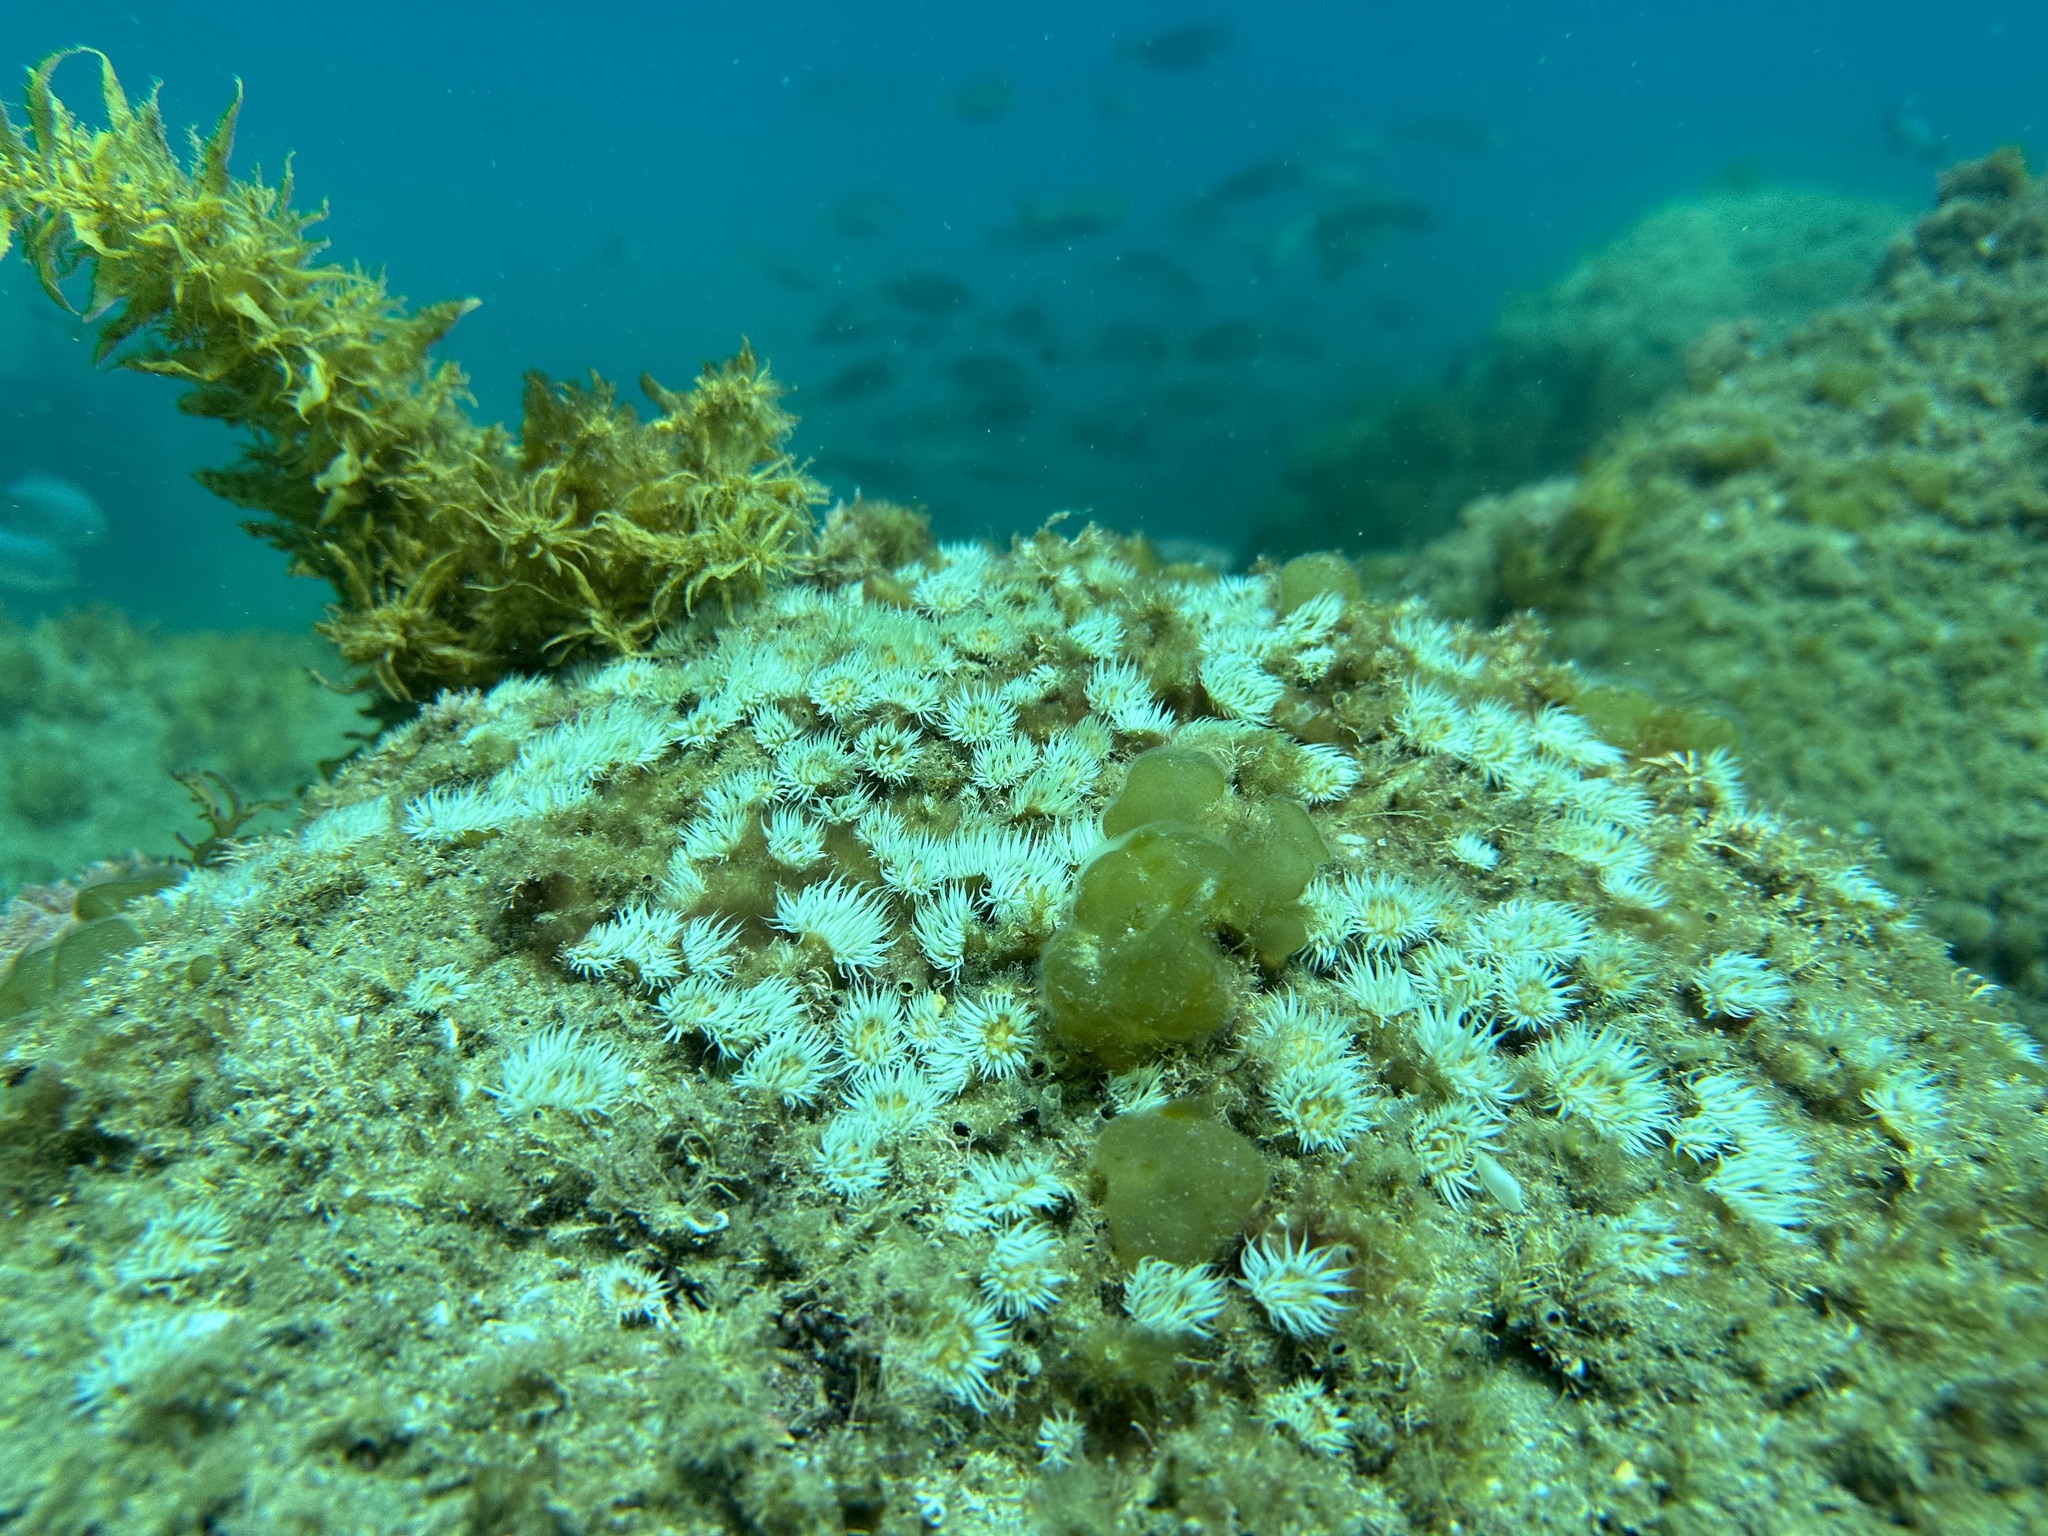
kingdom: Animalia
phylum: Cnidaria
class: Anthozoa
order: Actiniaria
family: Sagartiidae
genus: Anthothoe
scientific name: Anthothoe albocincta
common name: Orange striped anemone
